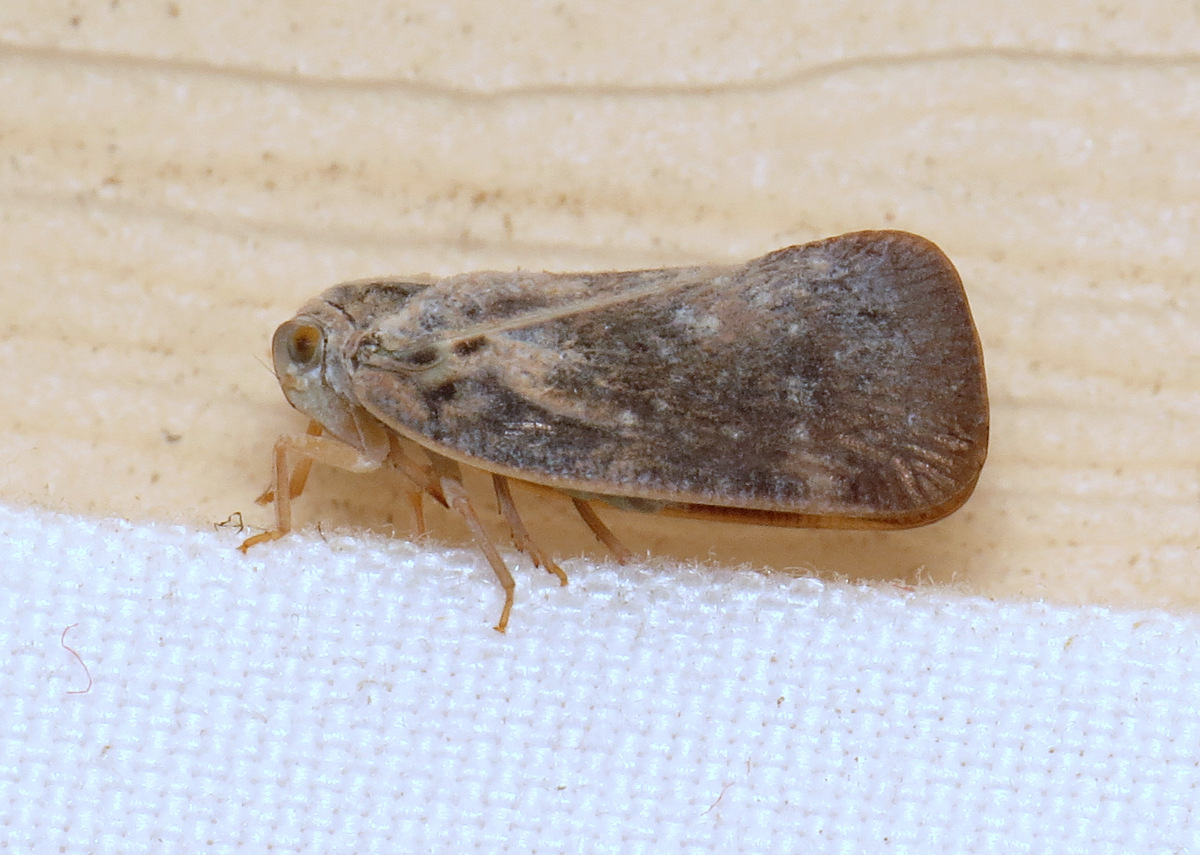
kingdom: Animalia
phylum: Arthropoda
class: Insecta
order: Hemiptera
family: Flatidae
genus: Metcalfa
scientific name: Metcalfa pruinosa
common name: Citrus flatid planthopper
